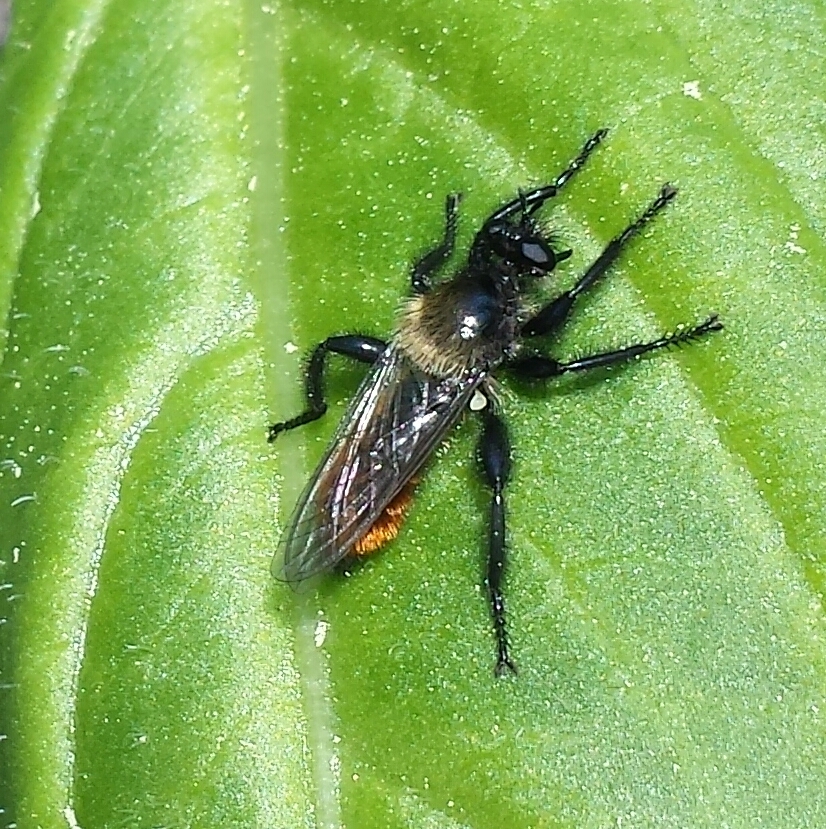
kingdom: Animalia
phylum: Arthropoda
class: Insecta
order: Diptera
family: Asilidae
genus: Laphria
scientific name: Laphria janus
